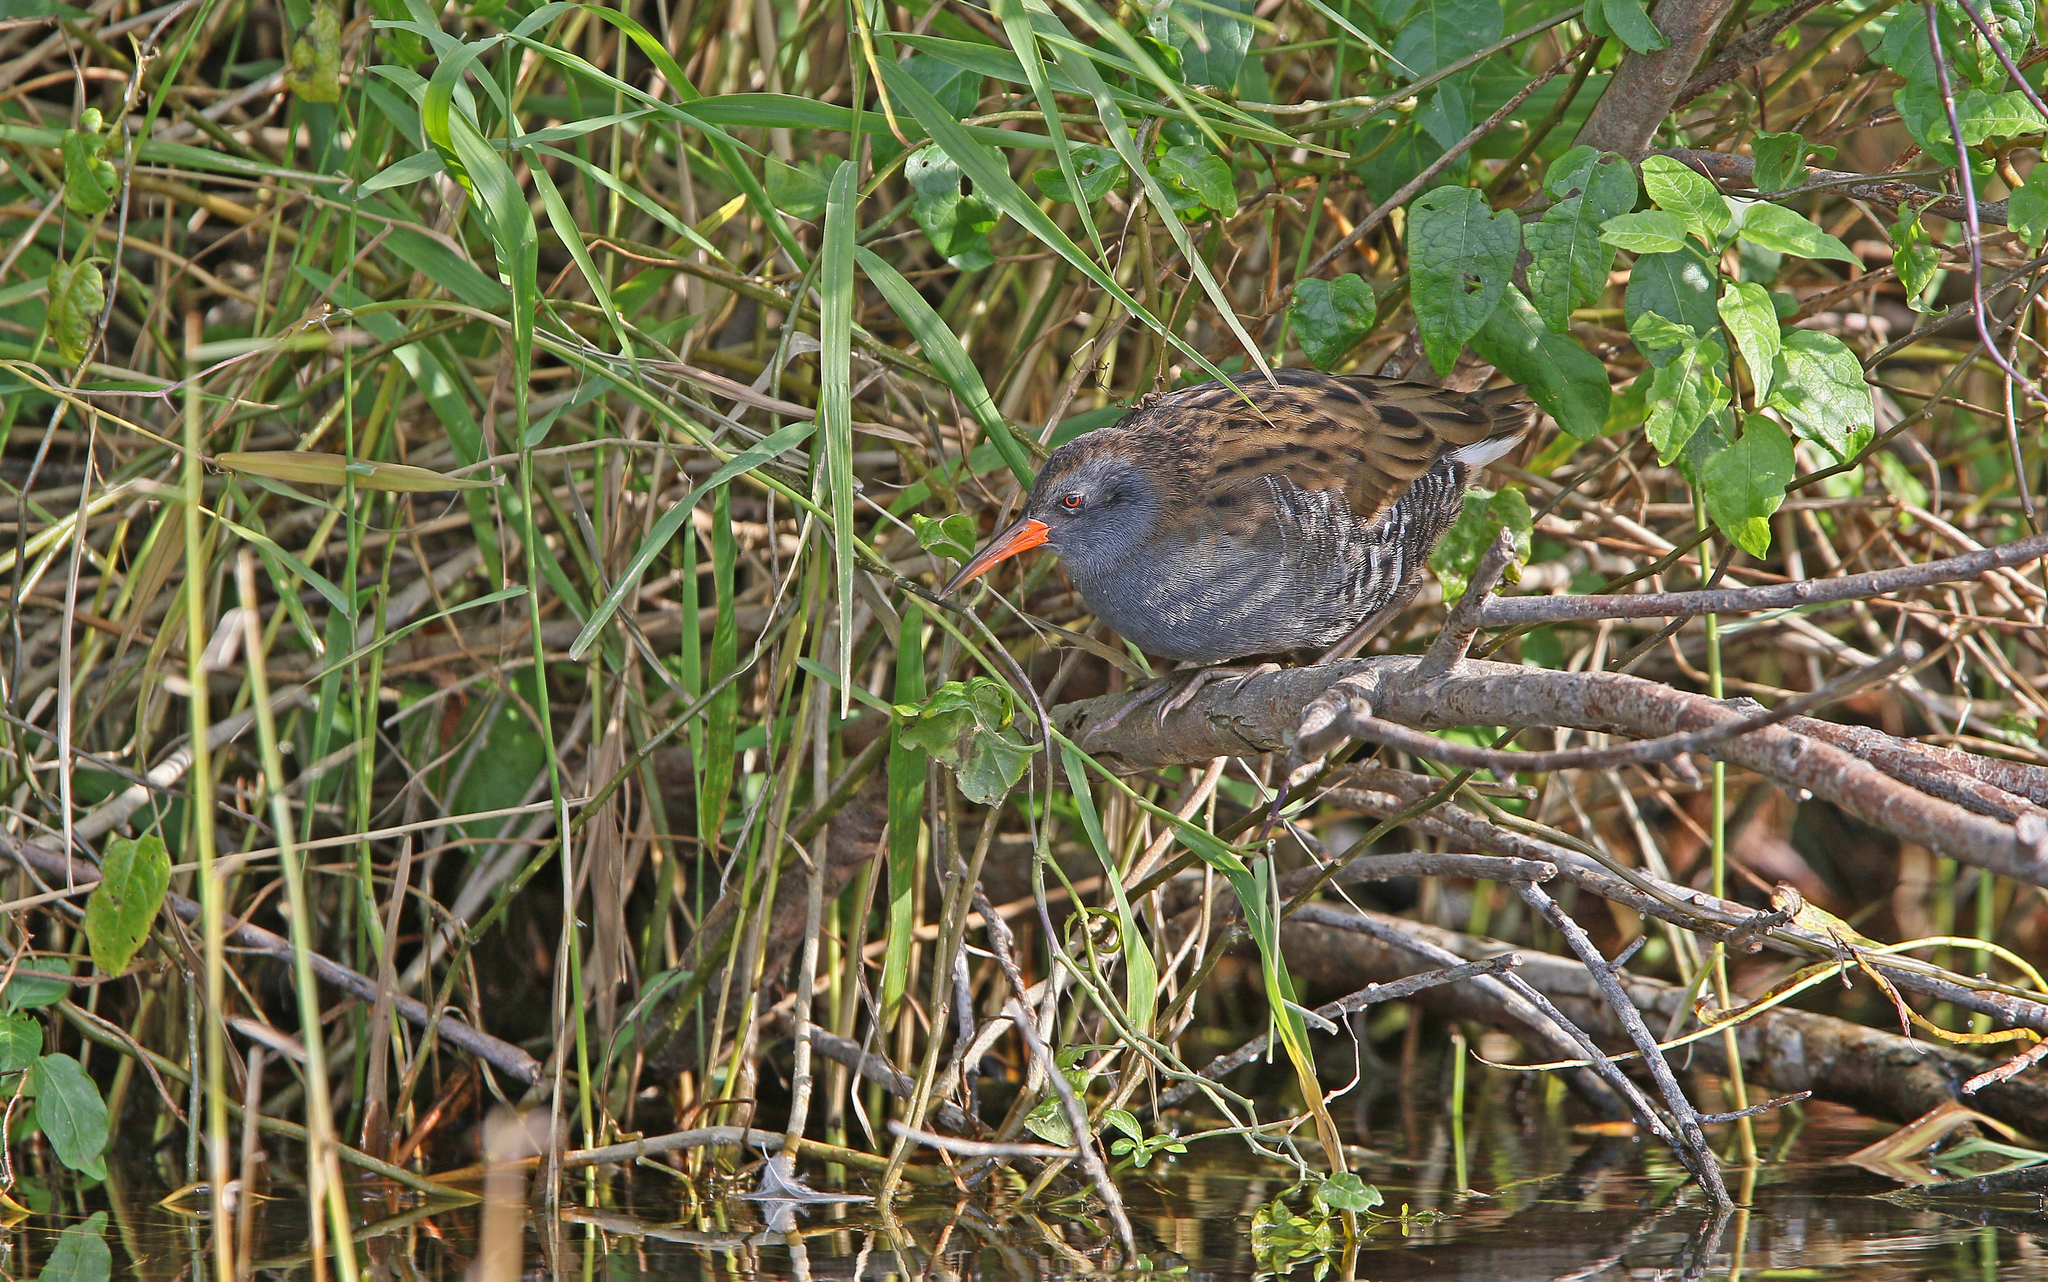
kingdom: Animalia
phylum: Chordata
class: Aves
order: Gruiformes
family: Rallidae
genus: Rallus
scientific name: Rallus aquaticus
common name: Water rail
